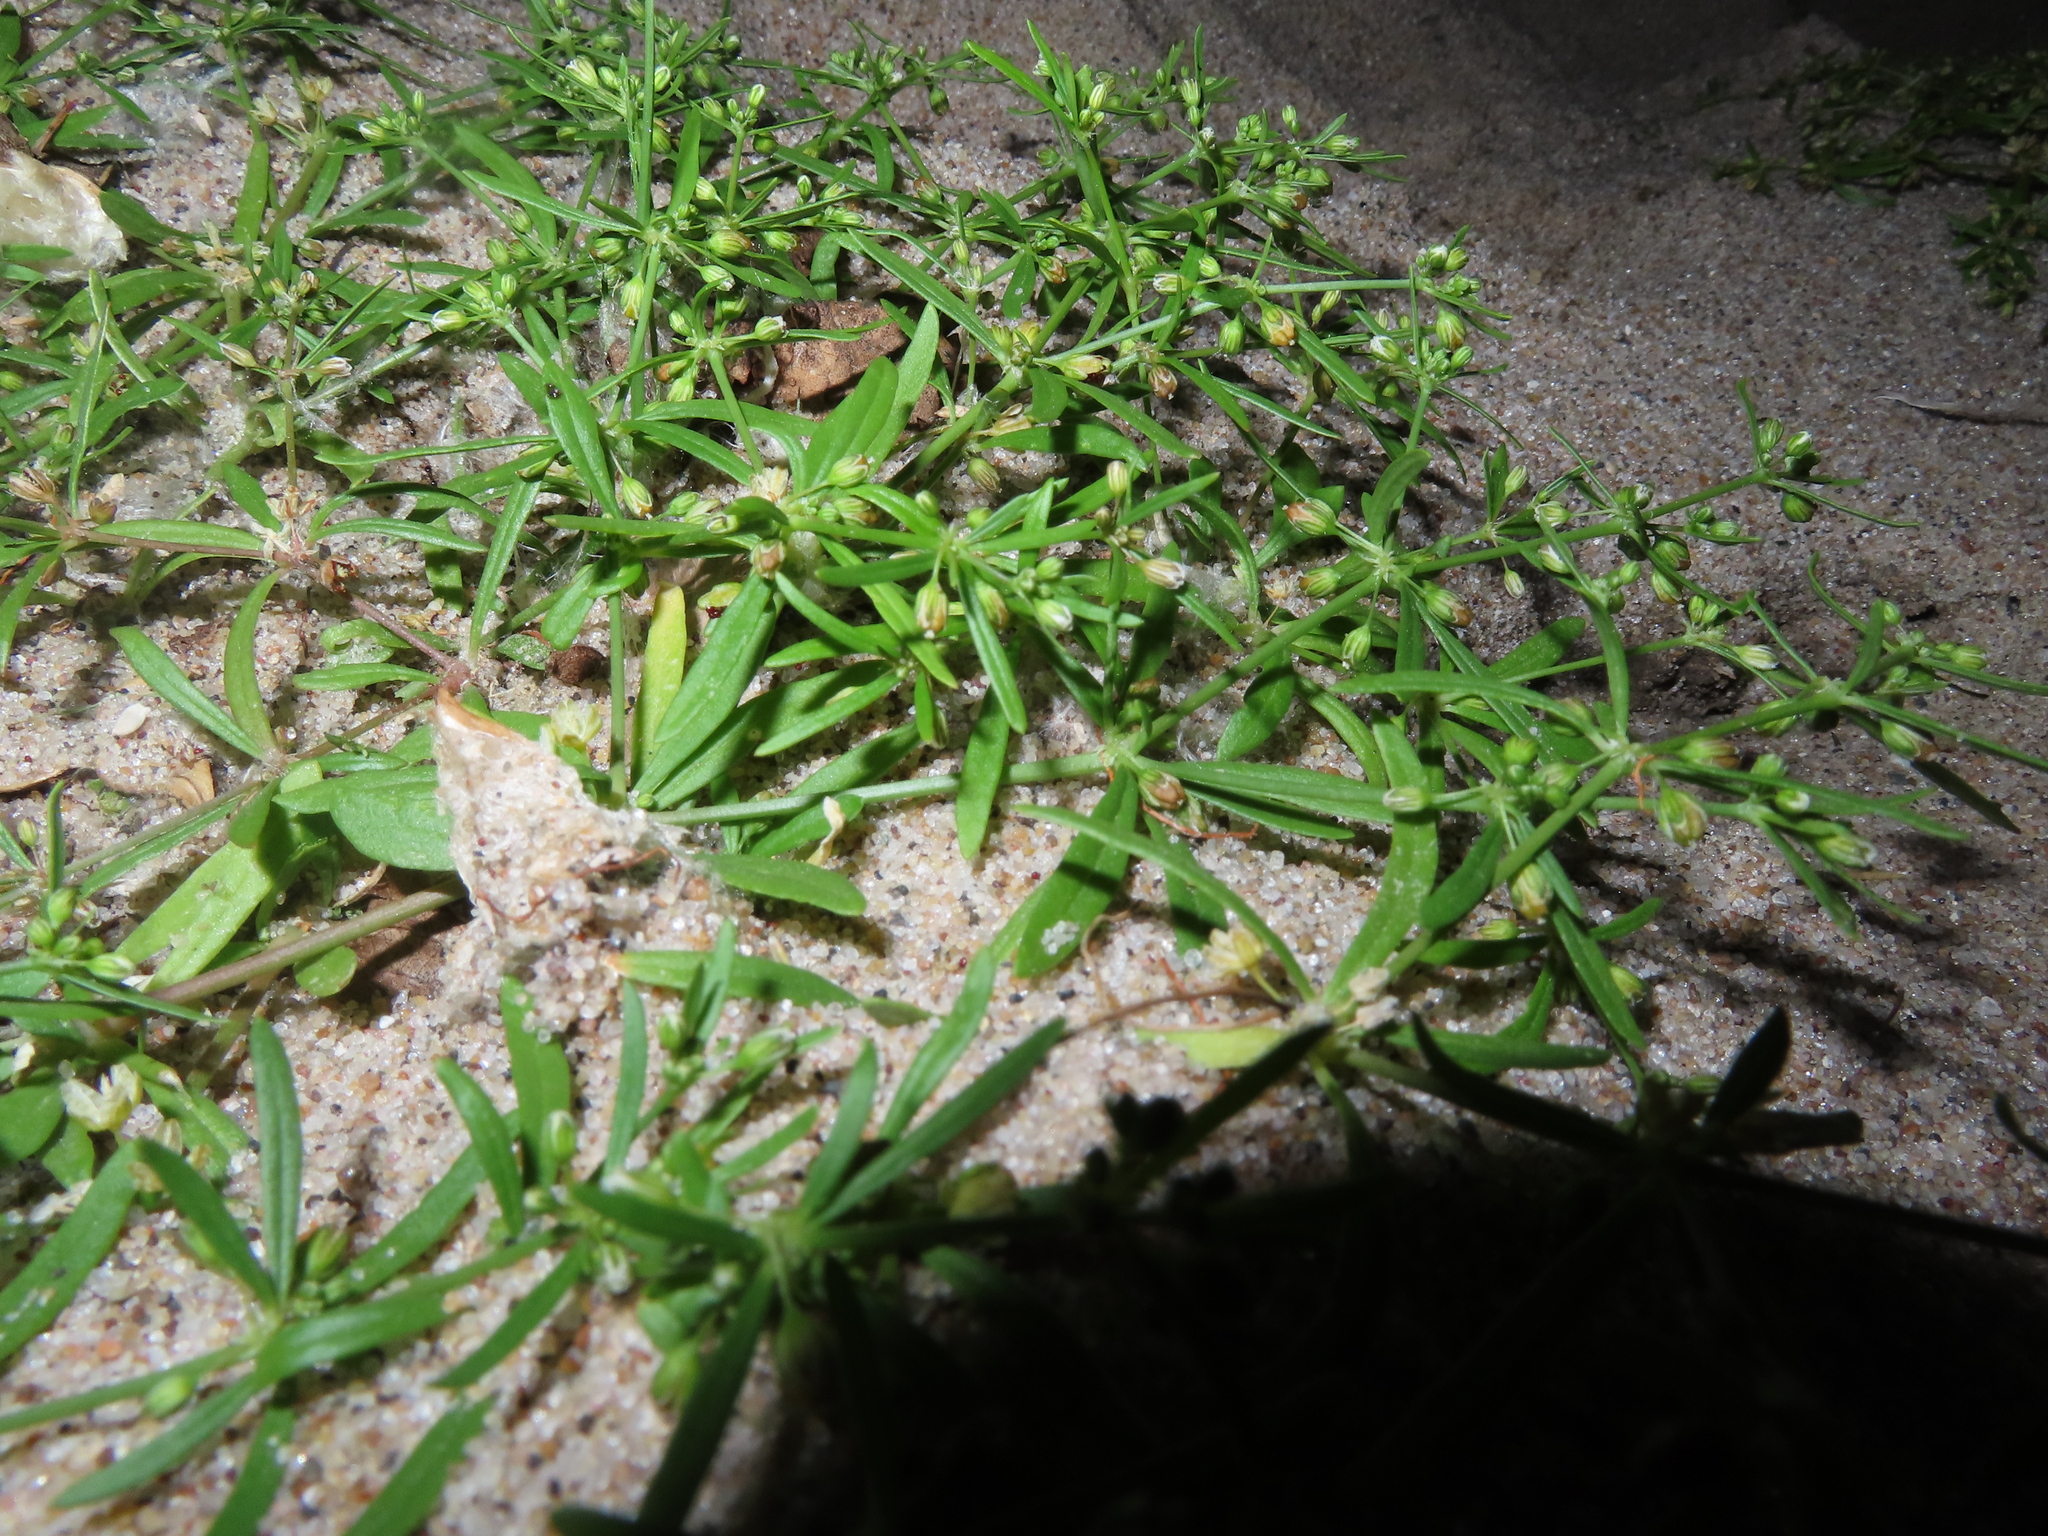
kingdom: Plantae
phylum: Tracheophyta
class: Magnoliopsida
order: Caryophyllales
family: Molluginaceae
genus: Mollugo
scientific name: Mollugo verticillata
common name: Green carpetweed
